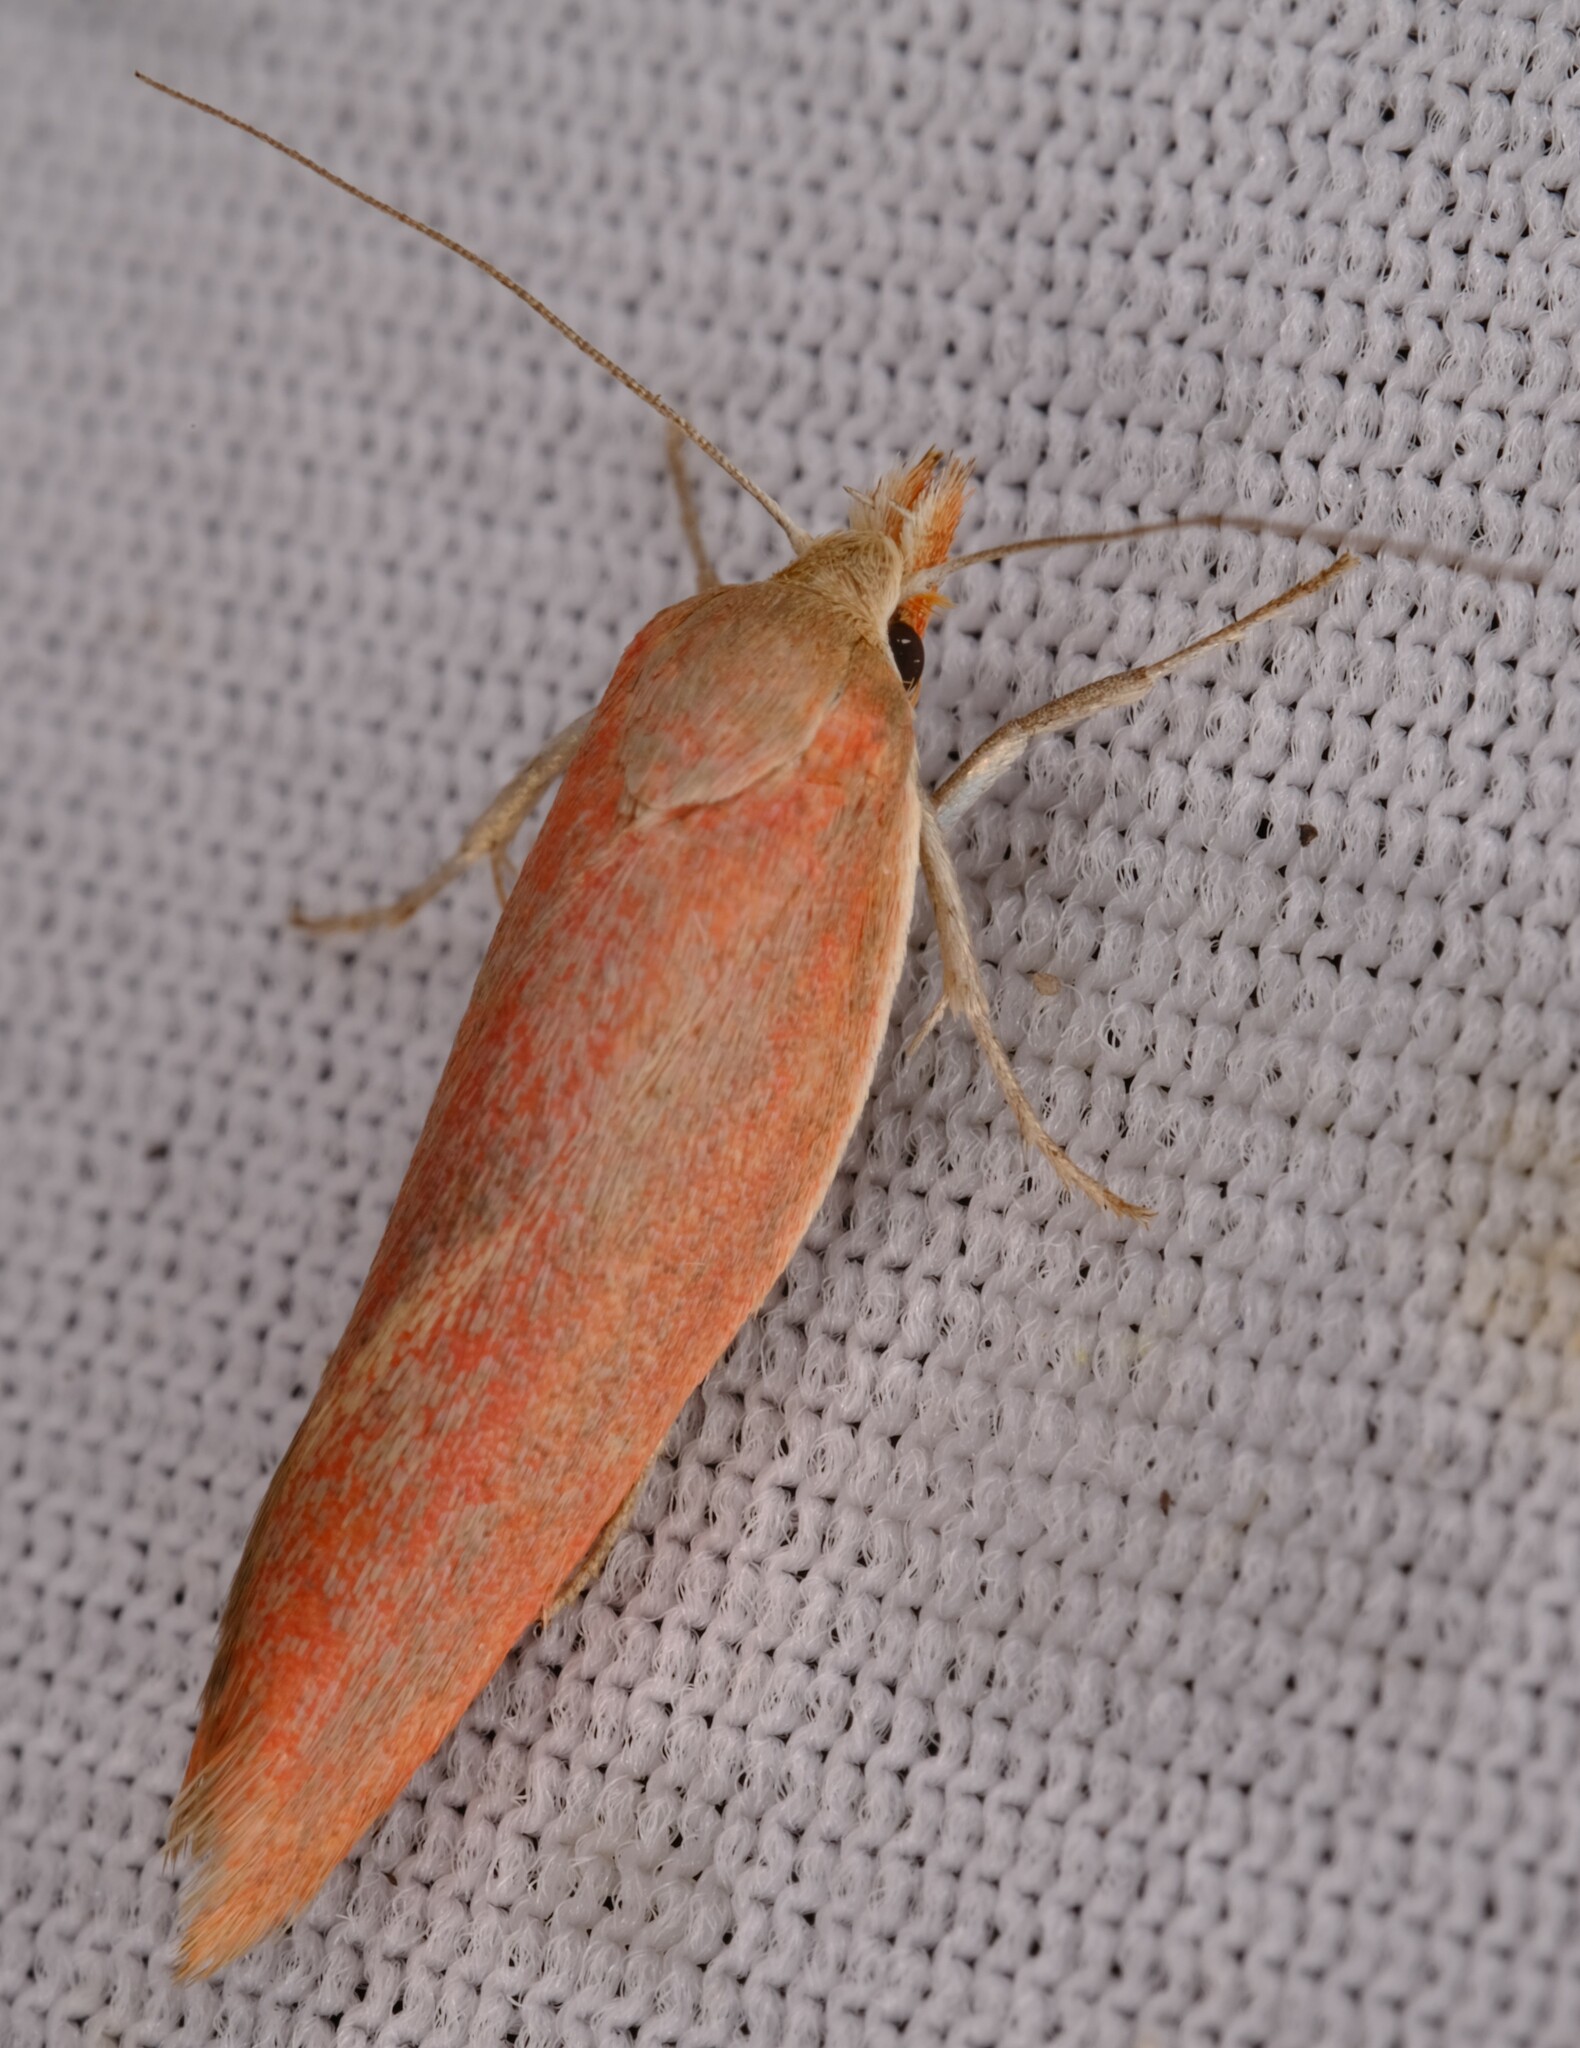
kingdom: Animalia
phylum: Arthropoda
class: Insecta
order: Lepidoptera
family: Oecophoridae
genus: Wingia
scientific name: Wingia aurata
